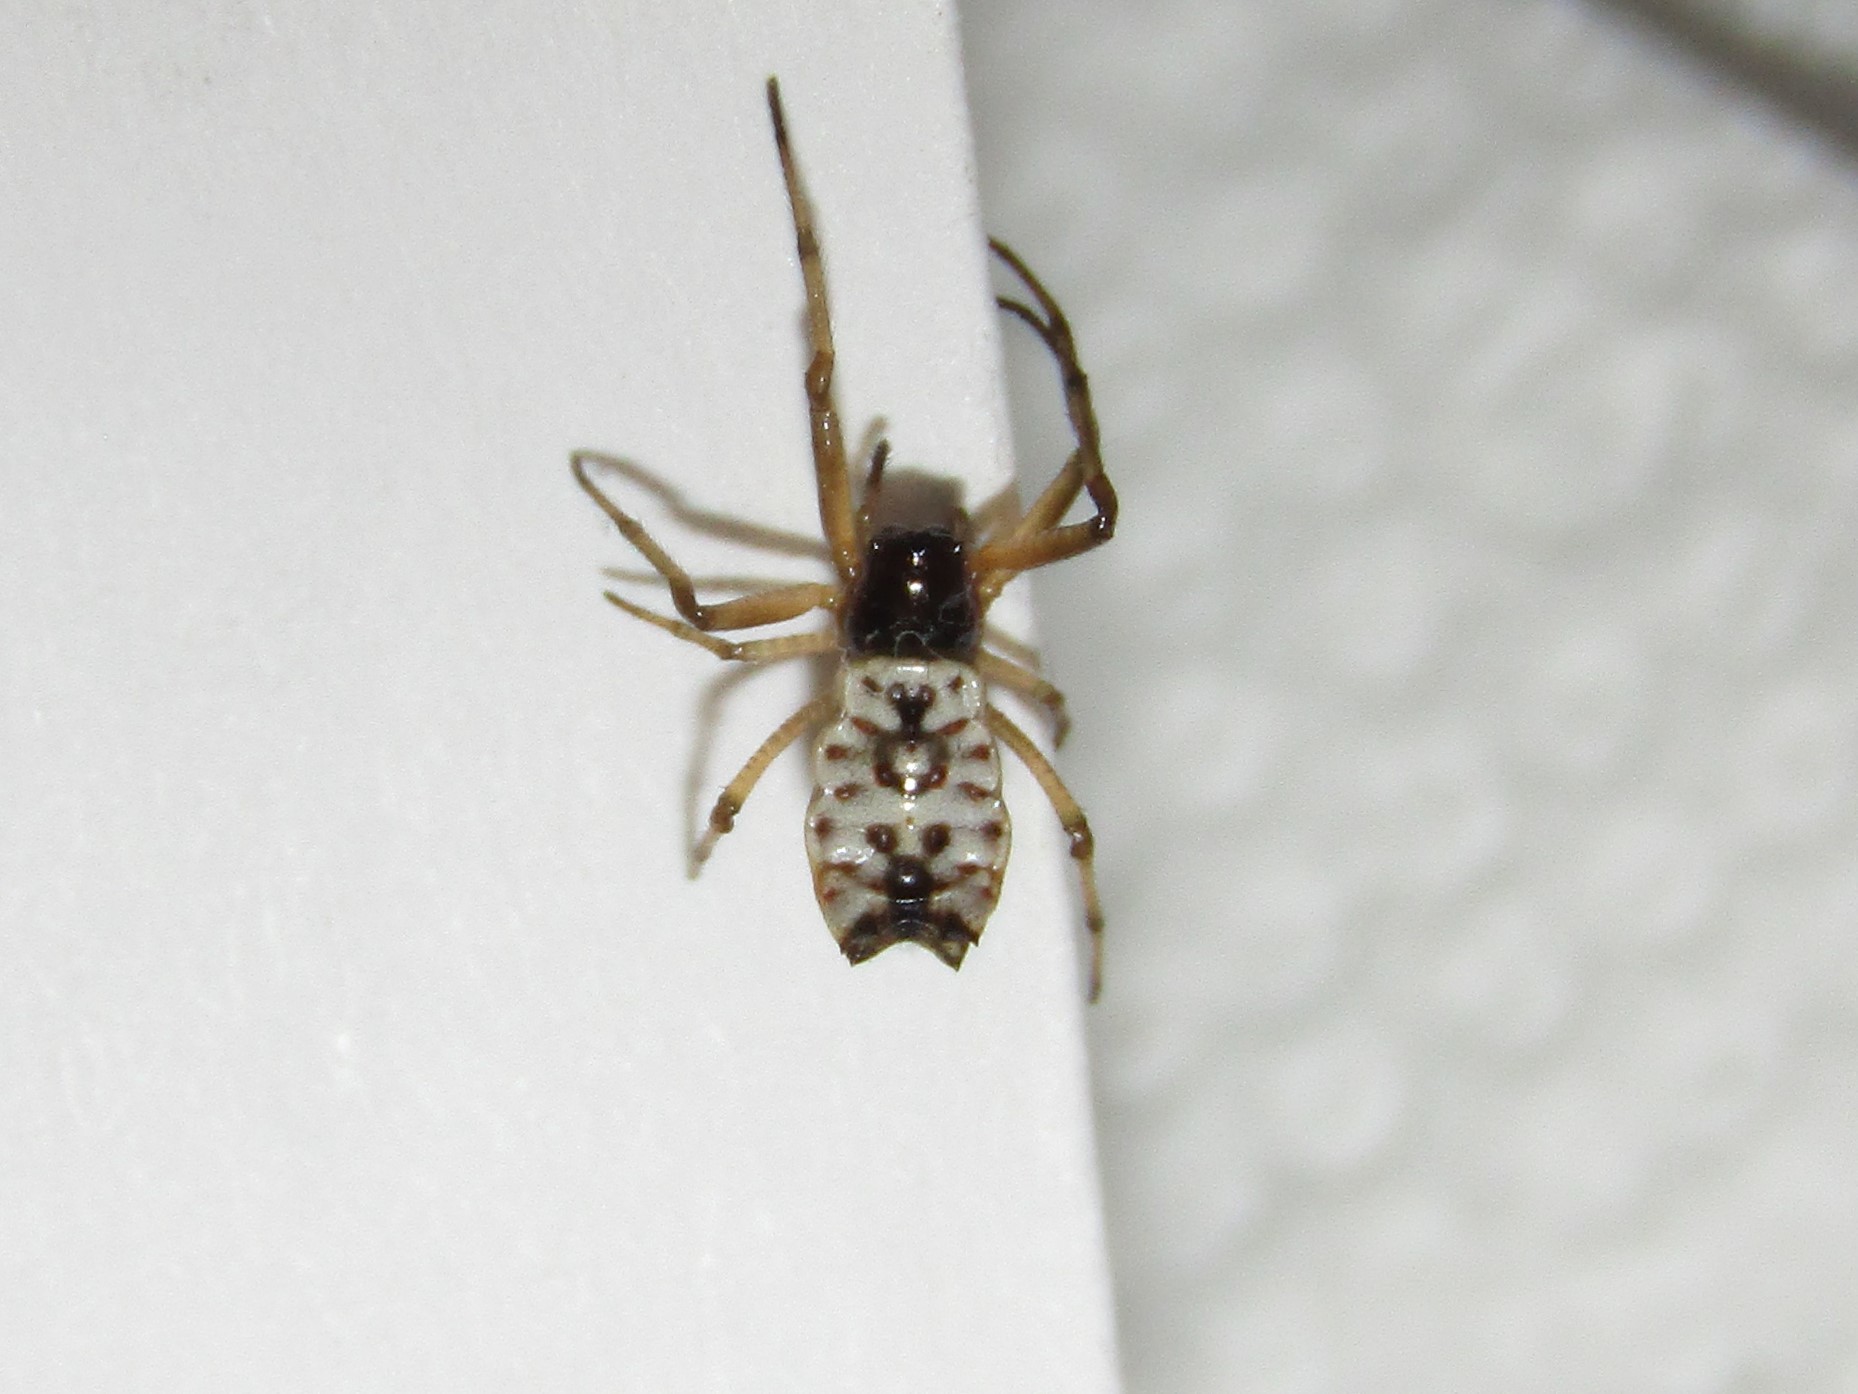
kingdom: Animalia
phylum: Arthropoda
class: Arachnida
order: Araneae
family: Araneidae
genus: Micrathena
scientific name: Micrathena mitrata
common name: Orb weavers
